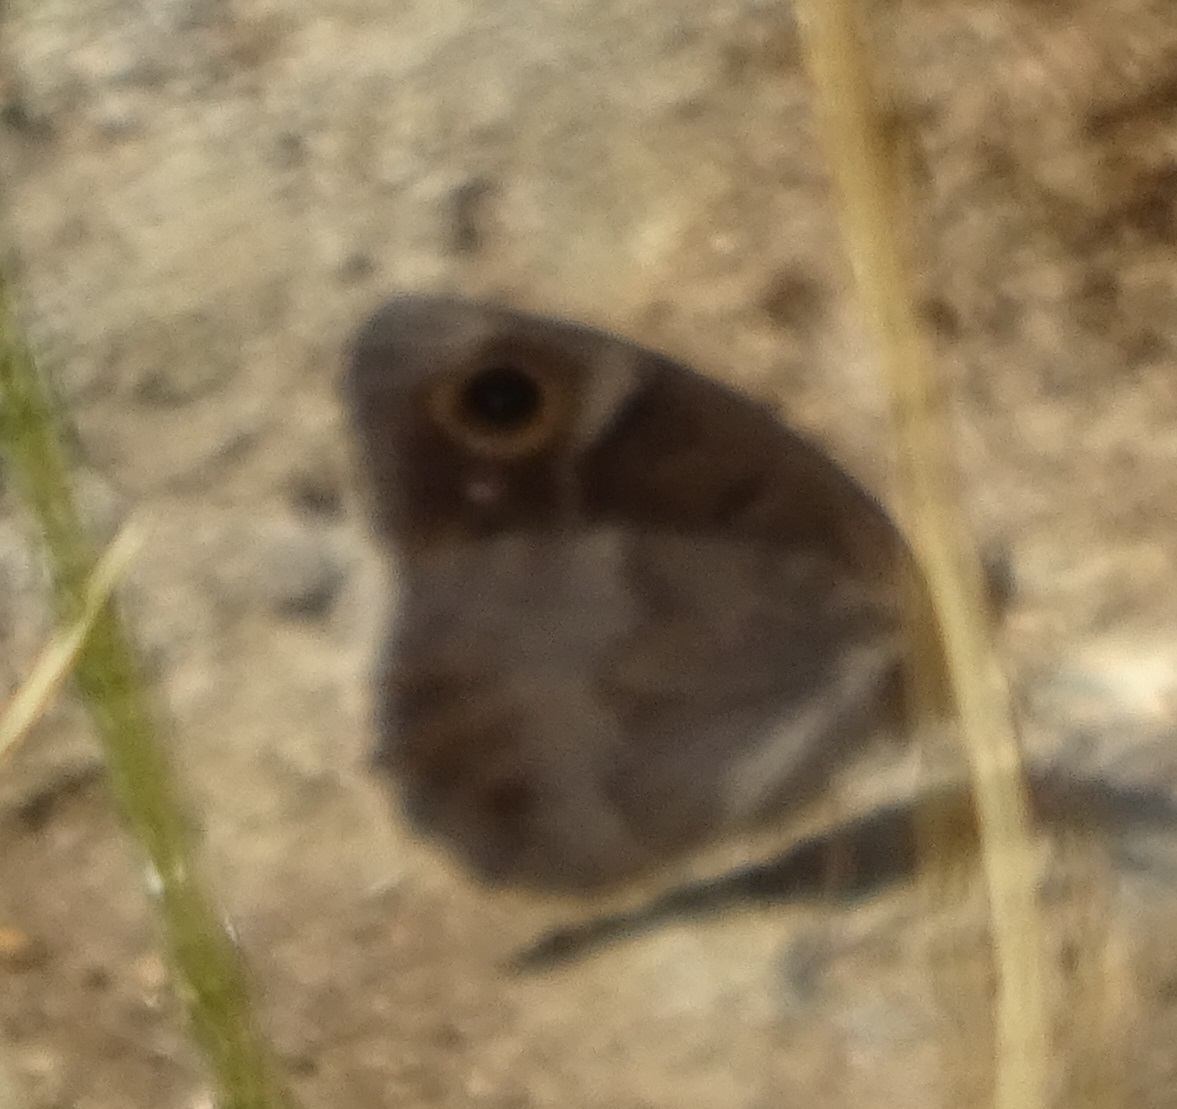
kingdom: Animalia
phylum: Arthropoda
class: Insecta
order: Lepidoptera
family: Nymphalidae
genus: Hipparchia
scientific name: Hipparchia statilinus
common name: Tree grayling
